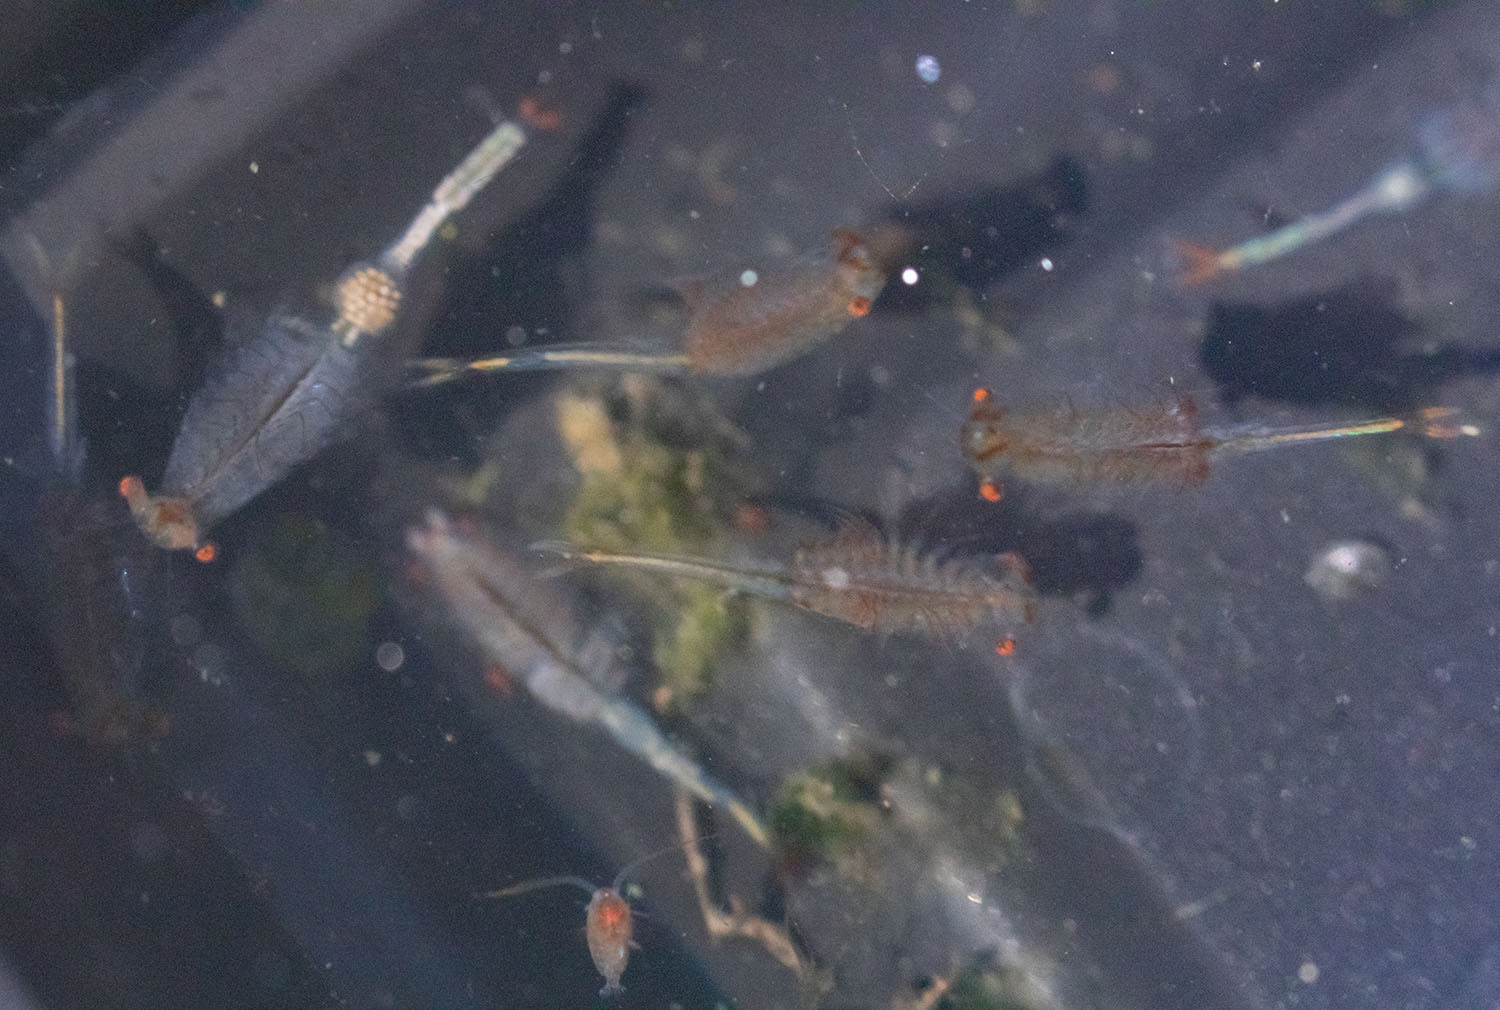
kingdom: Animalia
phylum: Arthropoda
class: Branchiopoda
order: Anostraca
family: Chirocephalidae
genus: Linderiella
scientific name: Linderiella occidentalis
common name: California linderiella
